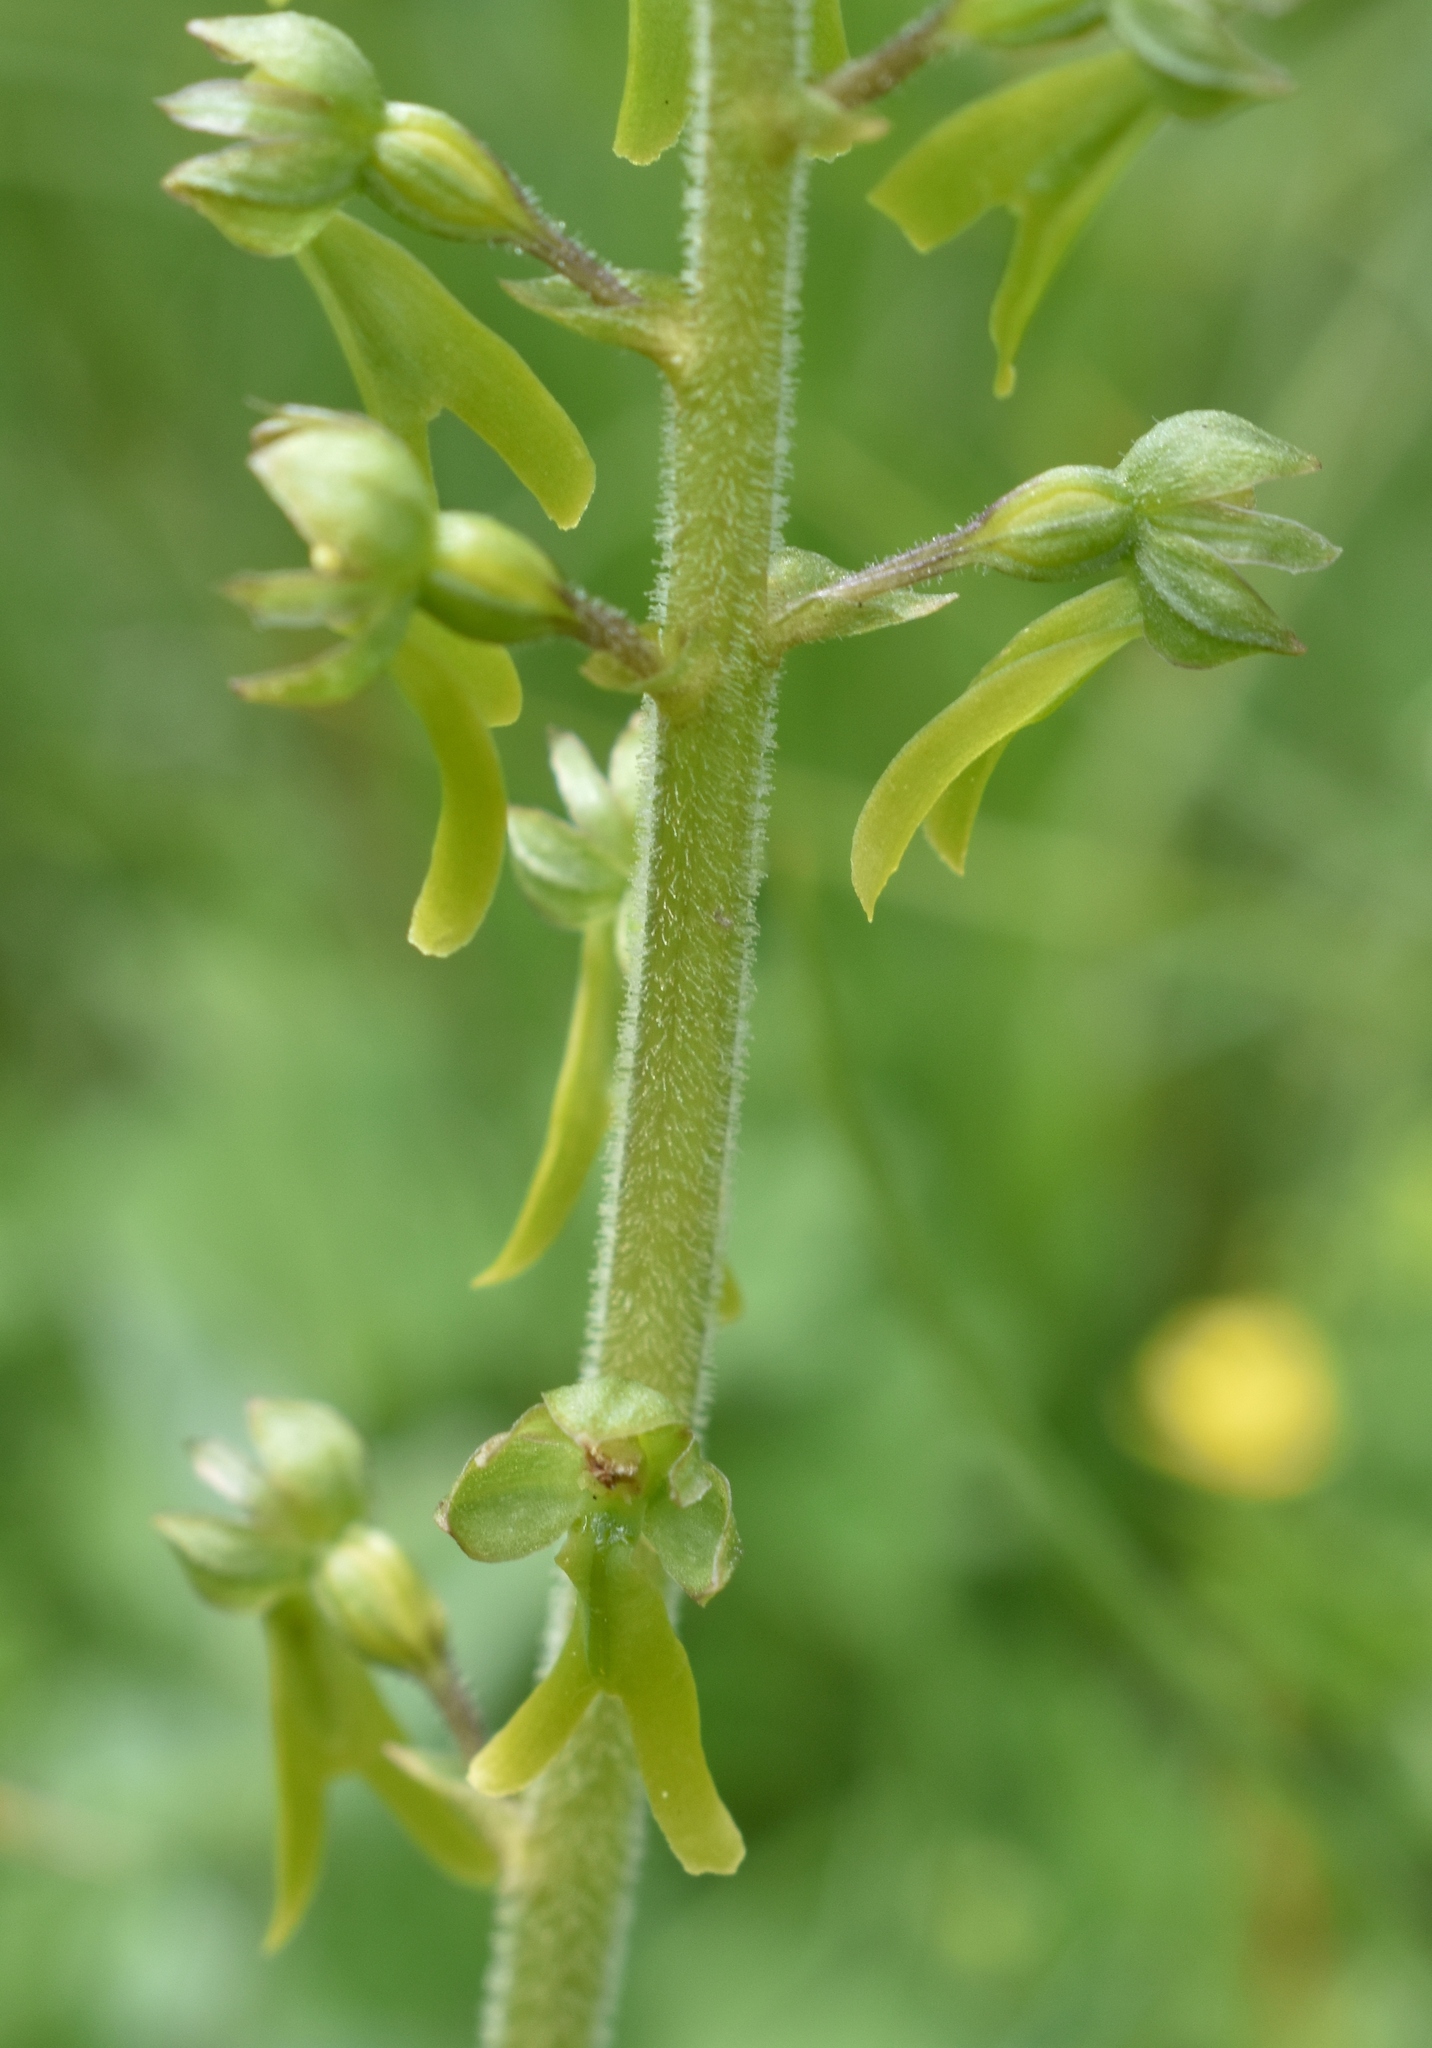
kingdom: Plantae
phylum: Tracheophyta
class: Liliopsida
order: Asparagales
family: Orchidaceae
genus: Neottia
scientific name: Neottia ovata
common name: Common twayblade
